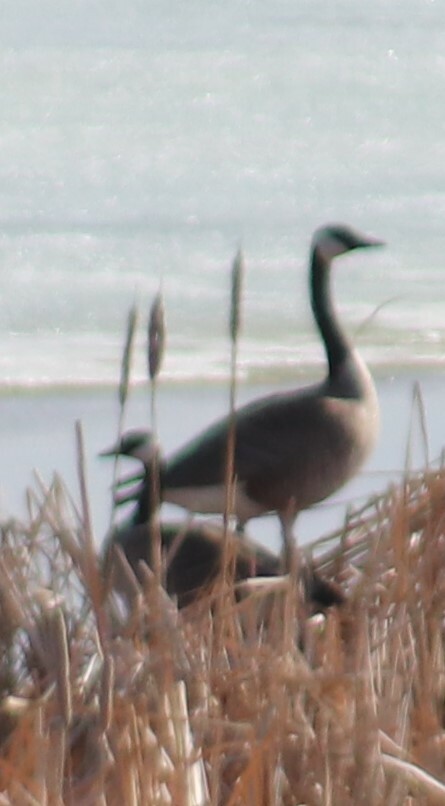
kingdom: Animalia
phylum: Chordata
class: Aves
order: Anseriformes
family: Anatidae
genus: Branta
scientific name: Branta canadensis
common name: Canada goose
